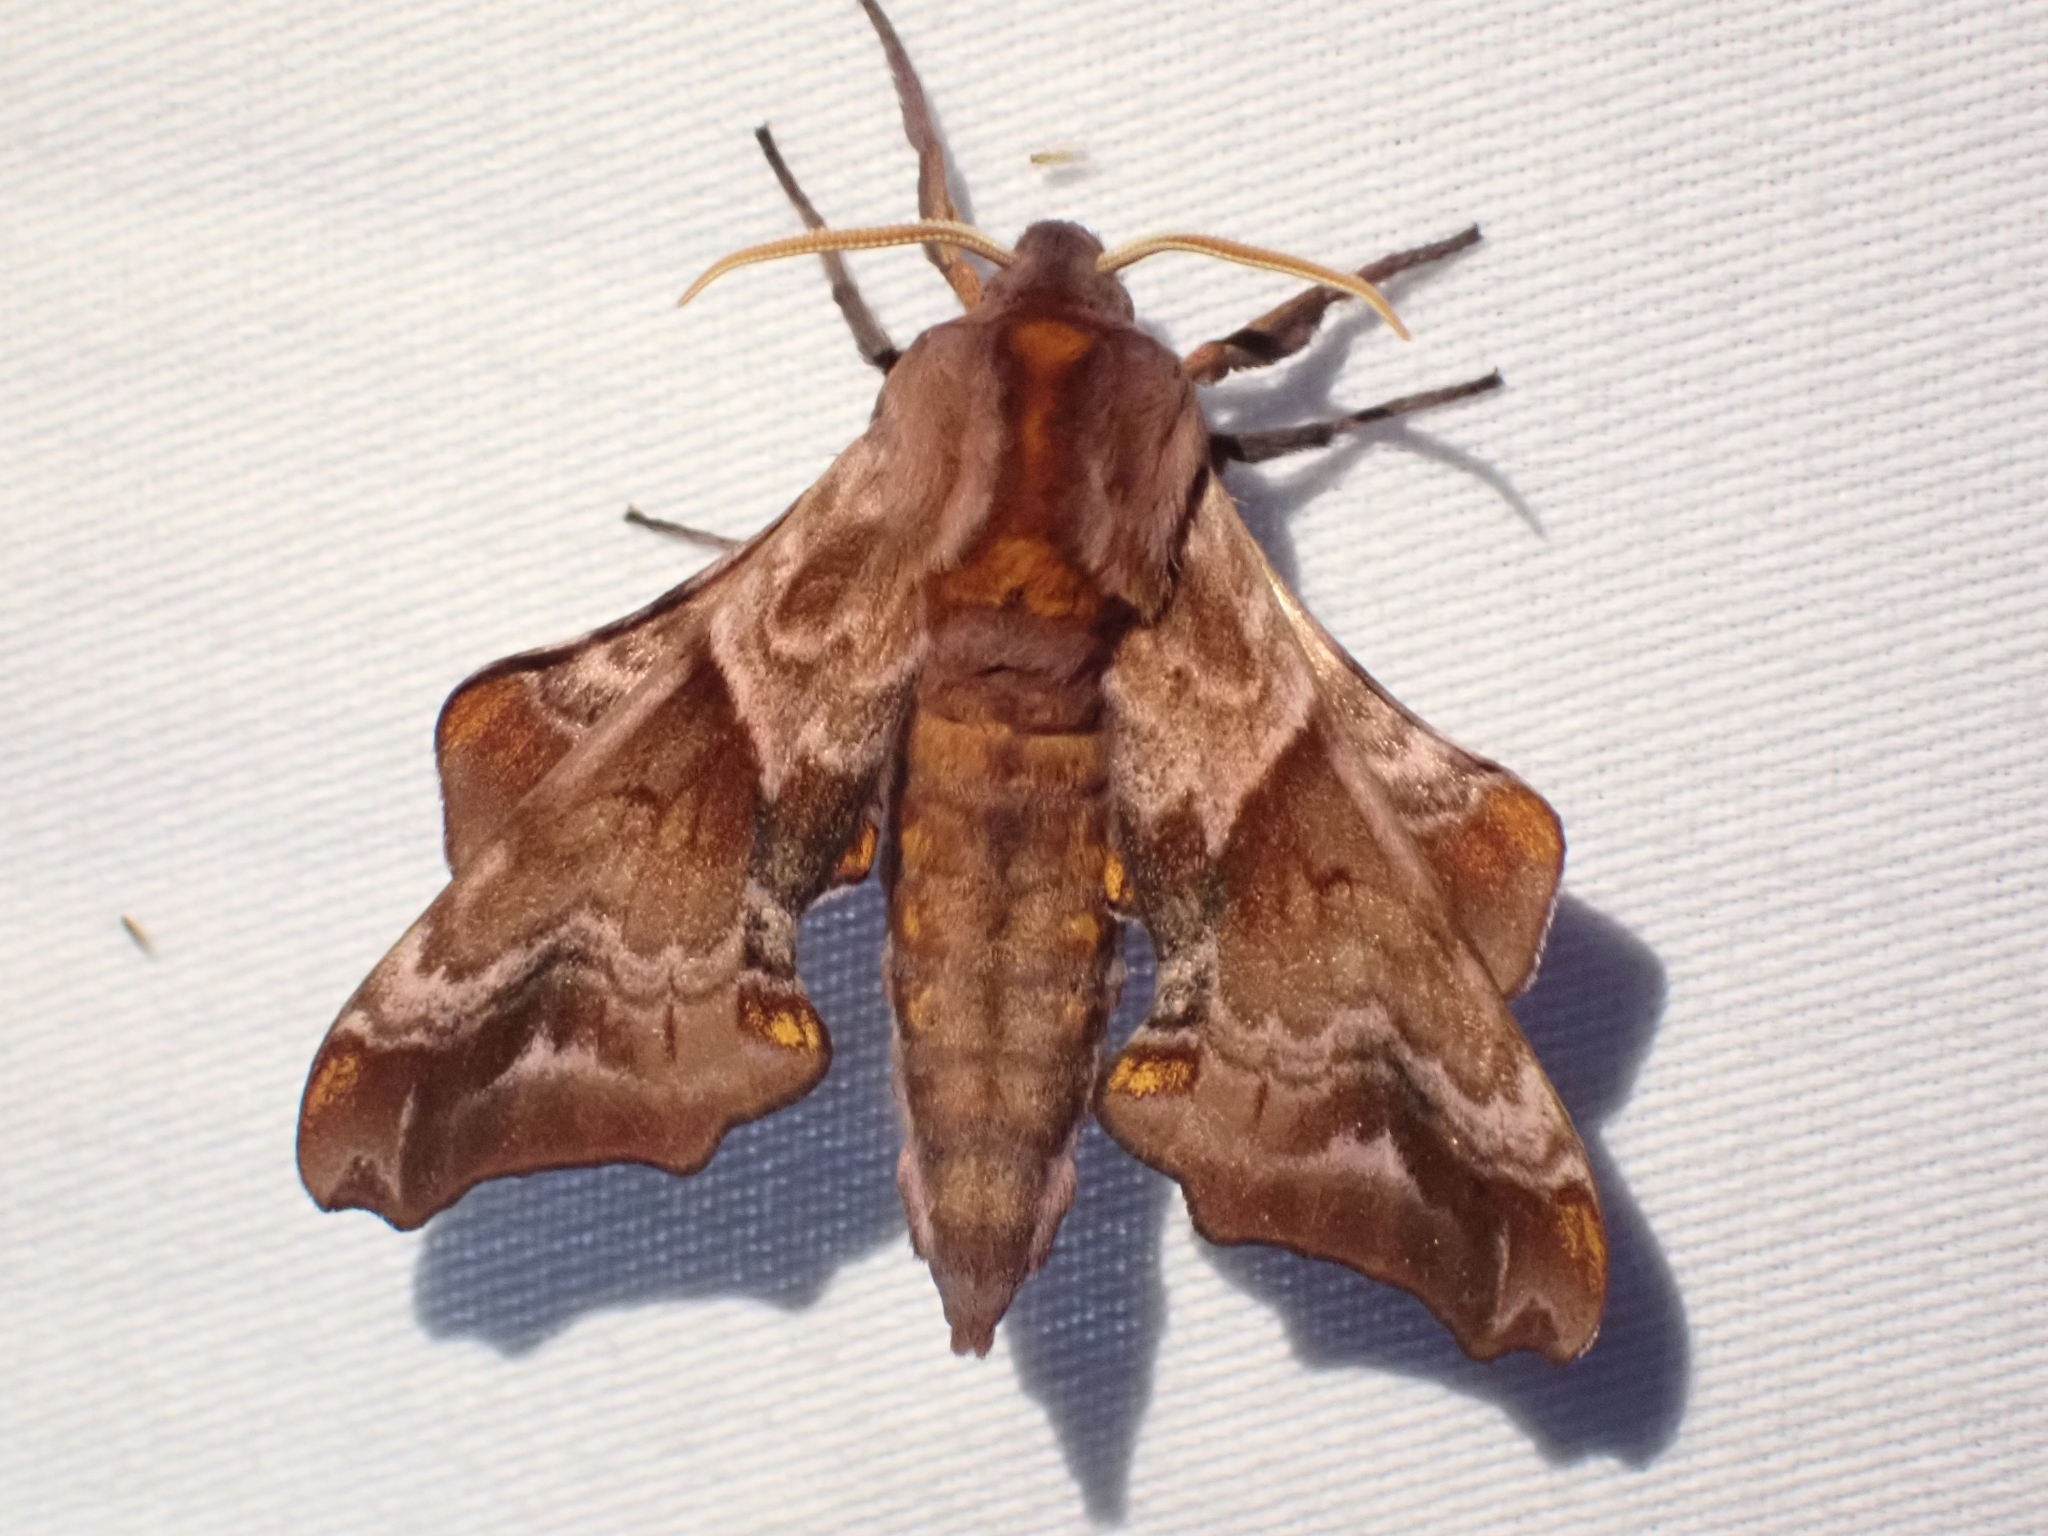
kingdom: Animalia
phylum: Arthropoda
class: Insecta
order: Lepidoptera
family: Sphingidae
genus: Paonias
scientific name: Paonias myops
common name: Small-eyed sphinx
